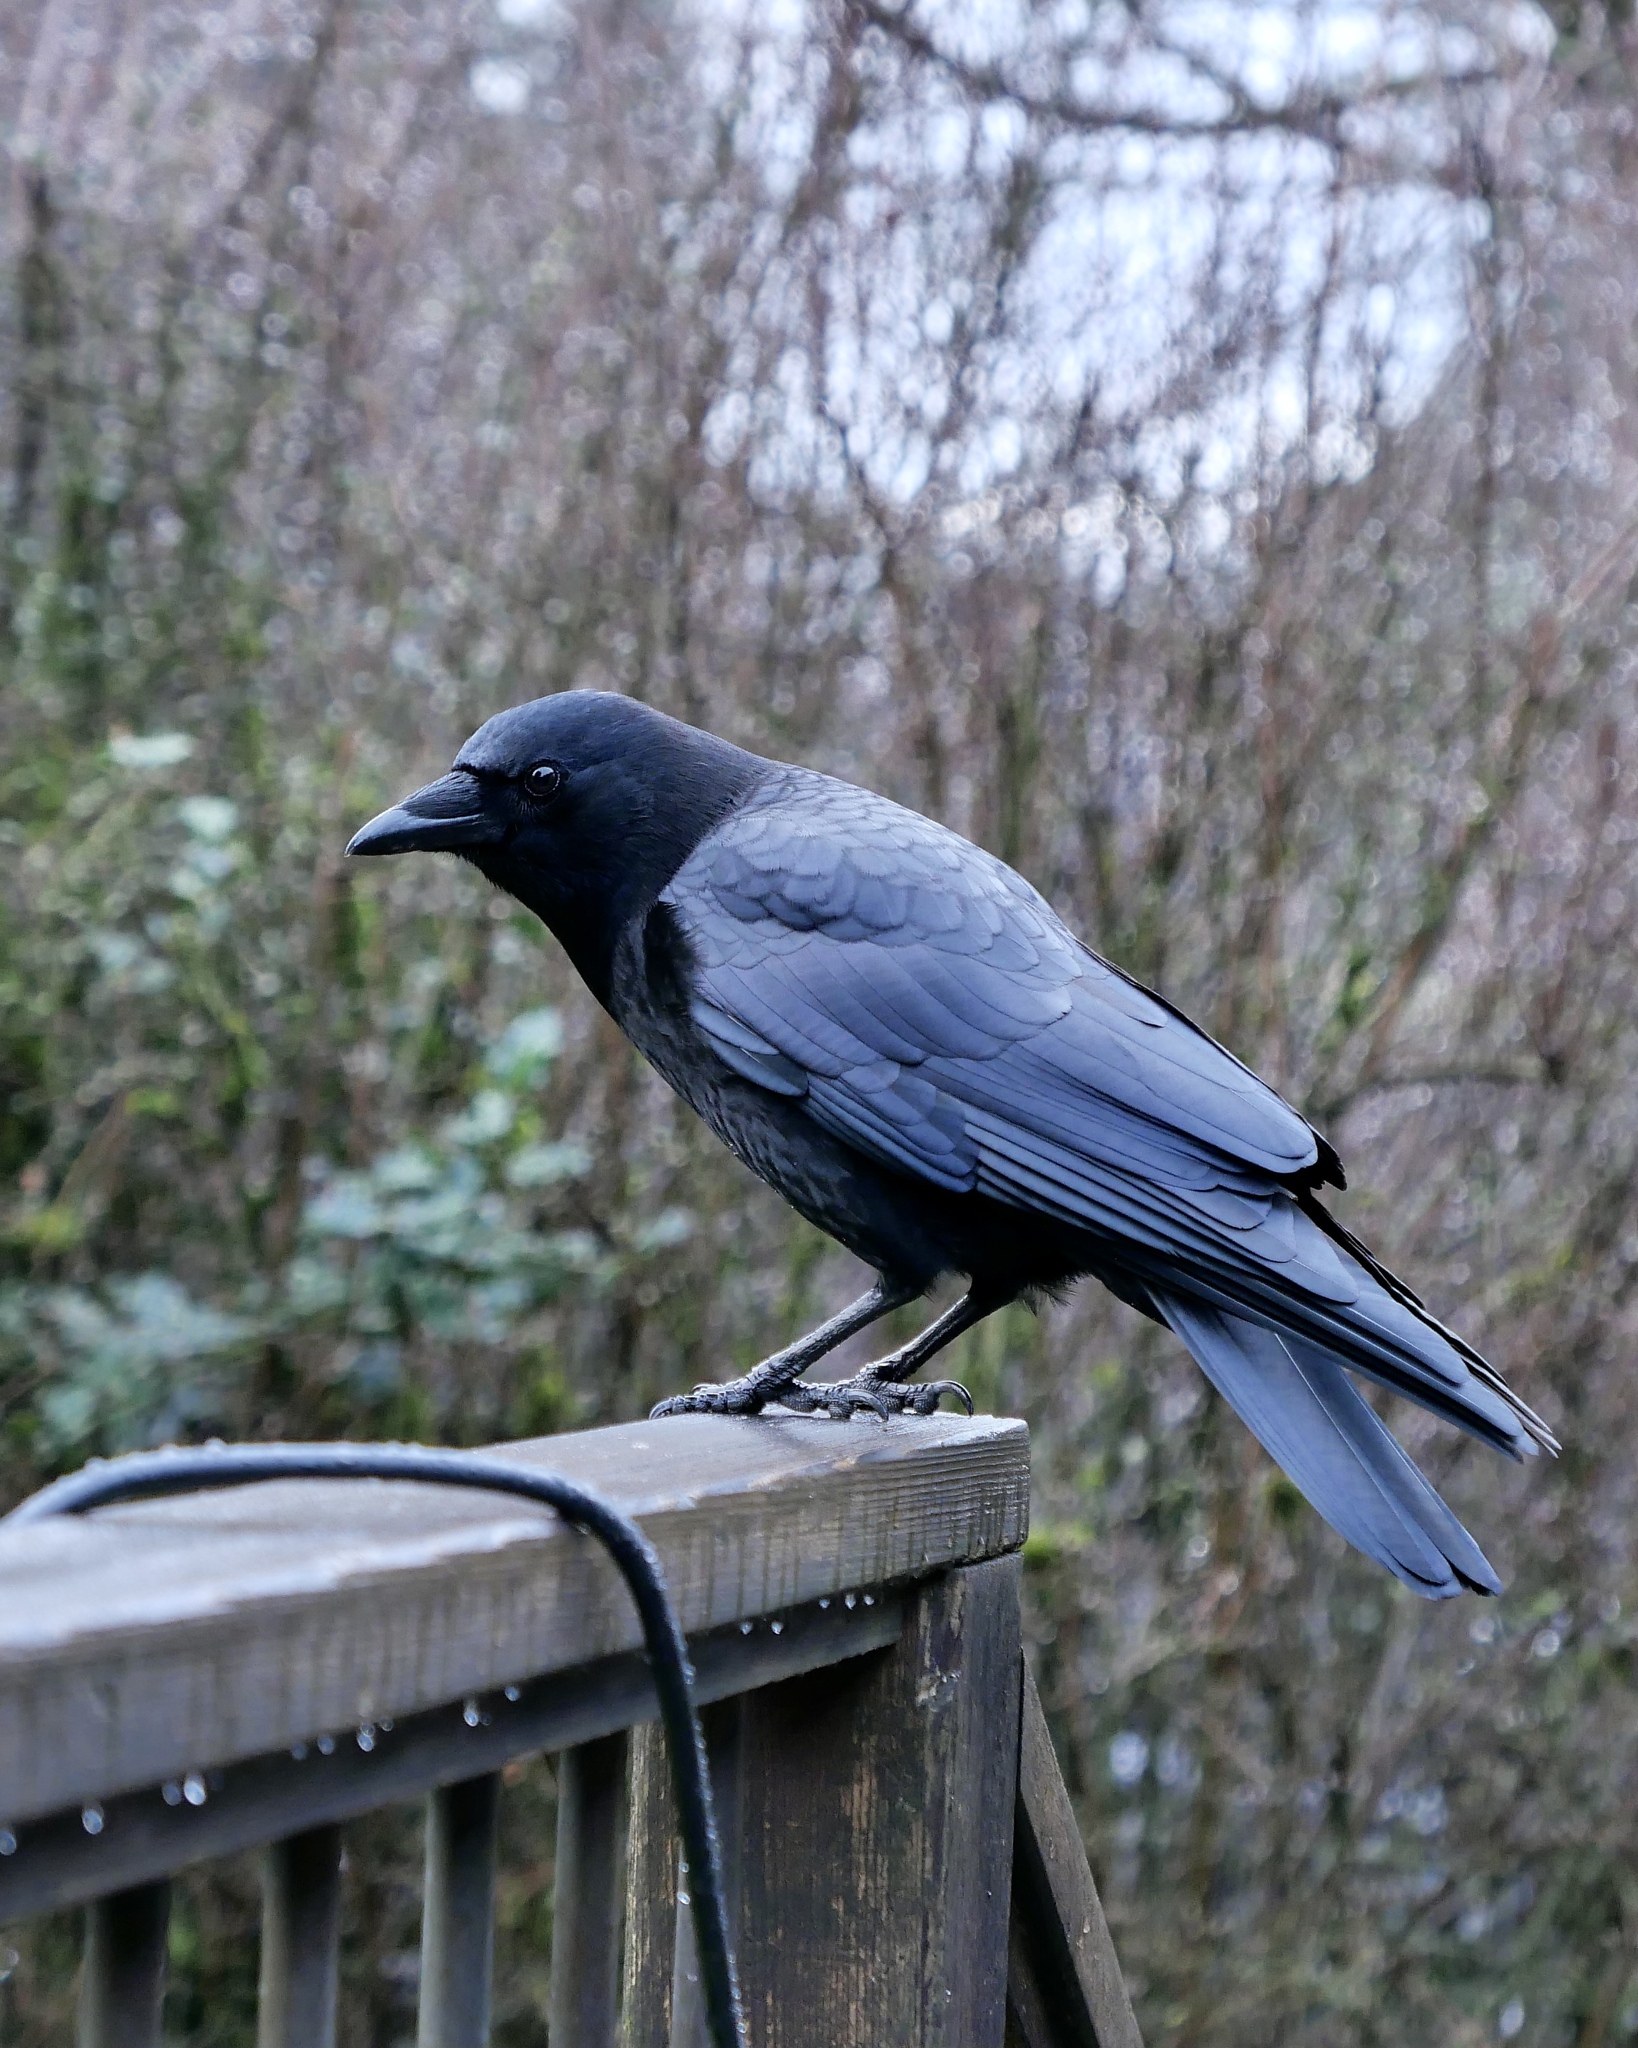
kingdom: Animalia
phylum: Chordata
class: Aves
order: Passeriformes
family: Corvidae
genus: Corvus
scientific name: Corvus brachyrhynchos
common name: American crow
